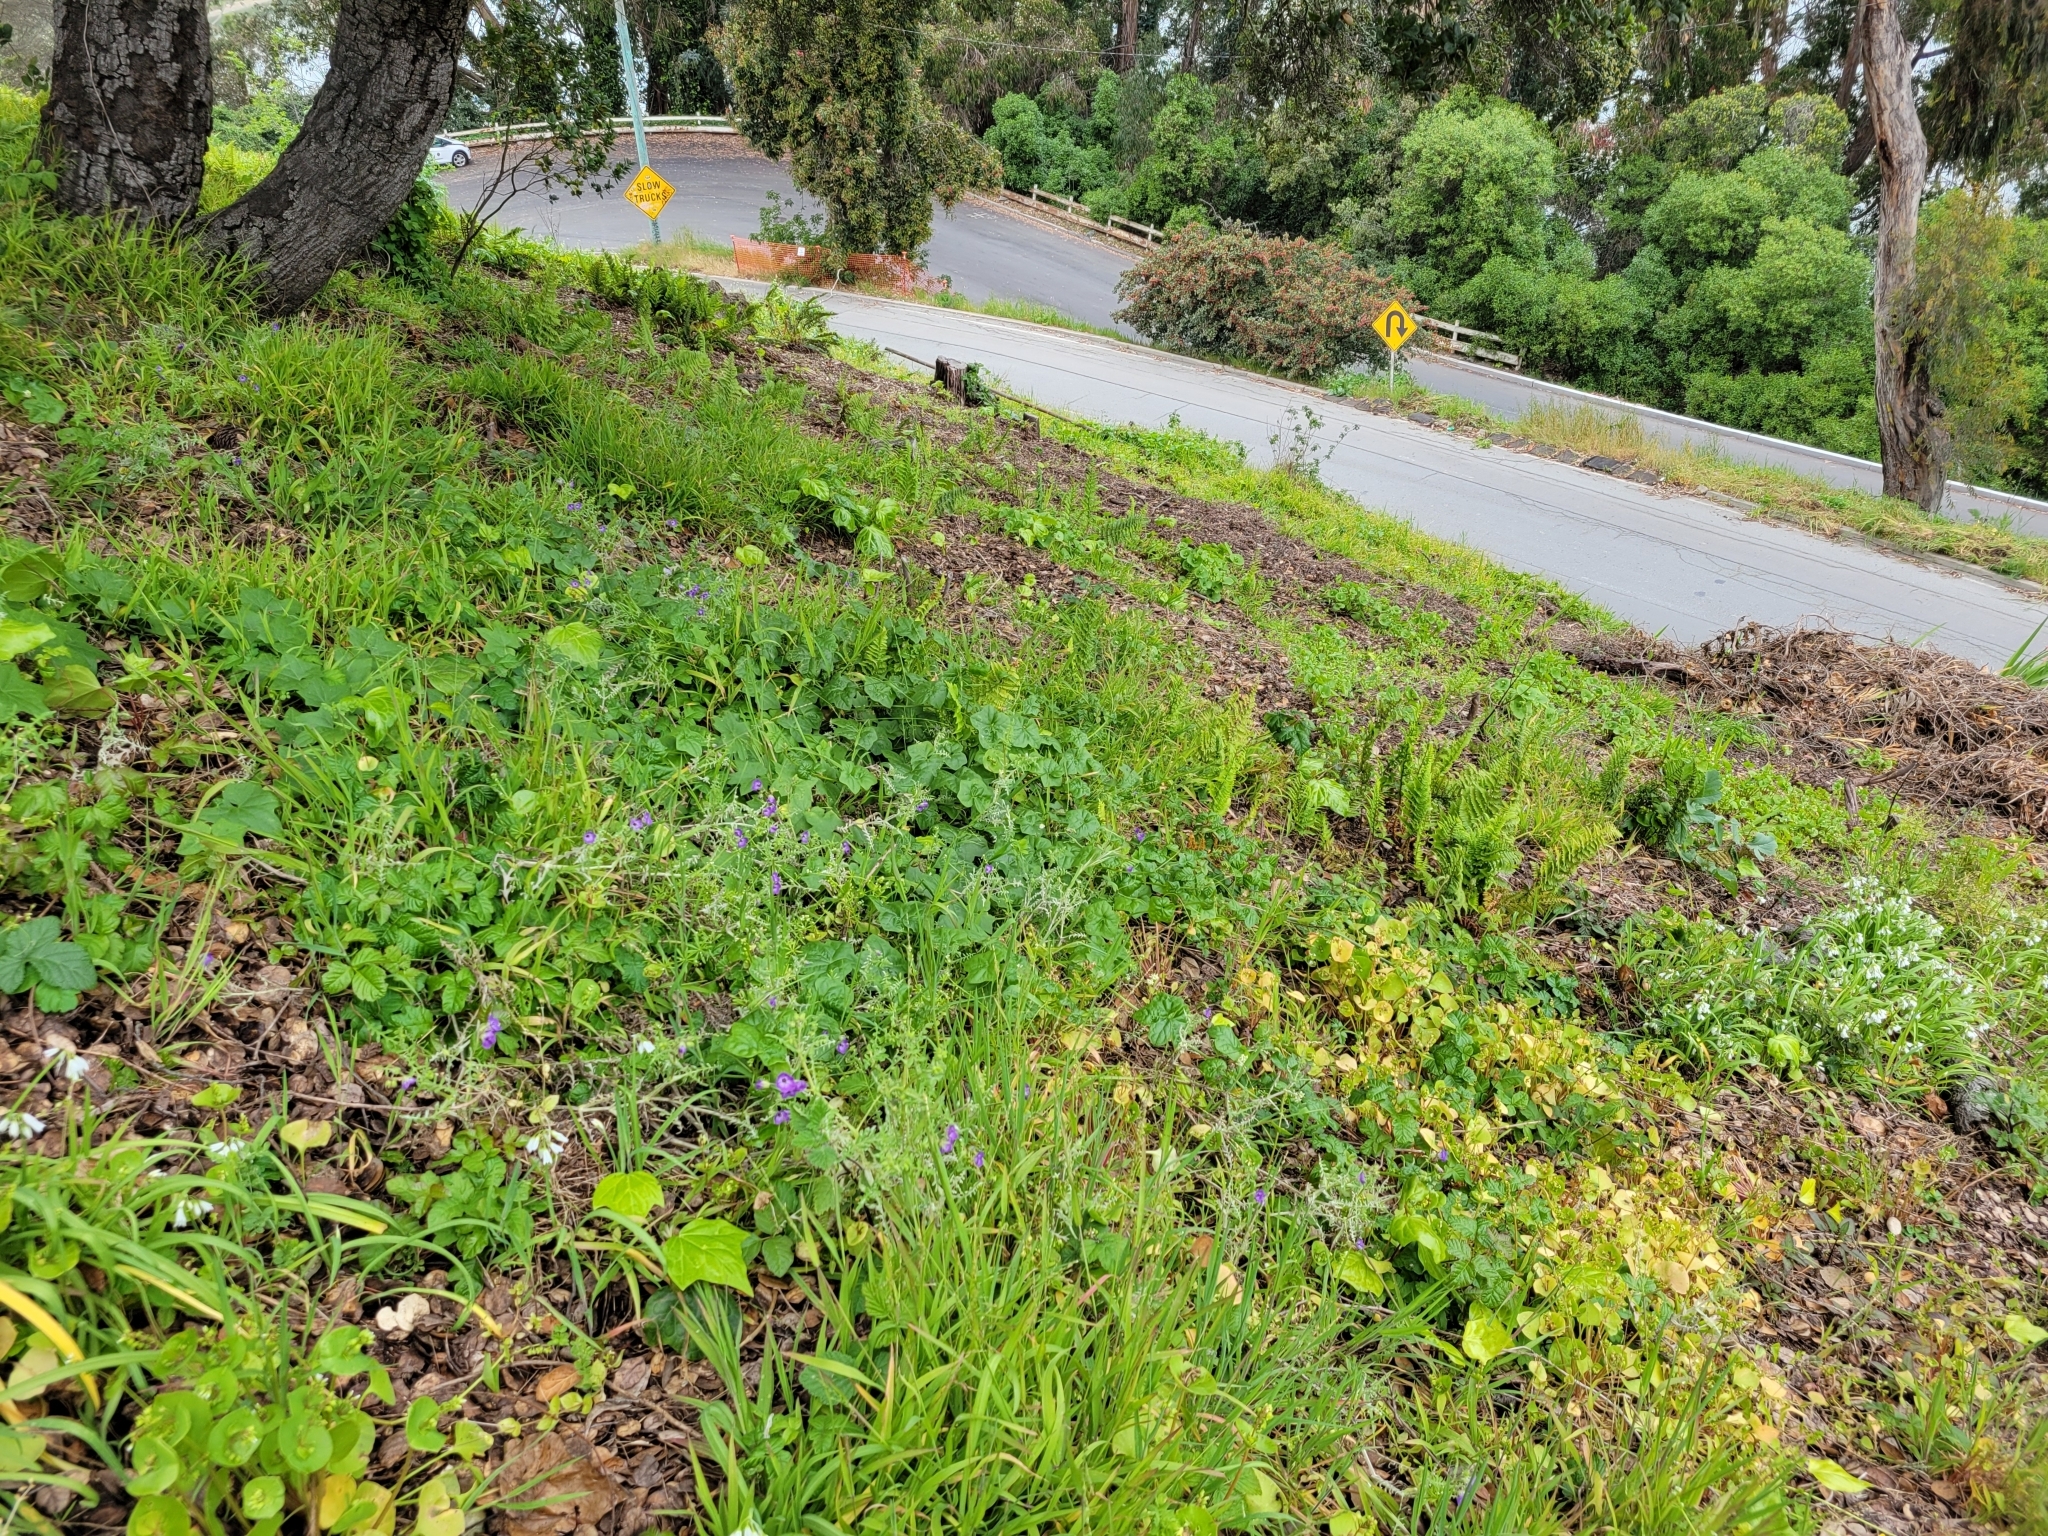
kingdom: Plantae
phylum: Tracheophyta
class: Magnoliopsida
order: Boraginales
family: Hydrophyllaceae
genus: Pholistoma
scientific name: Pholistoma auritum
